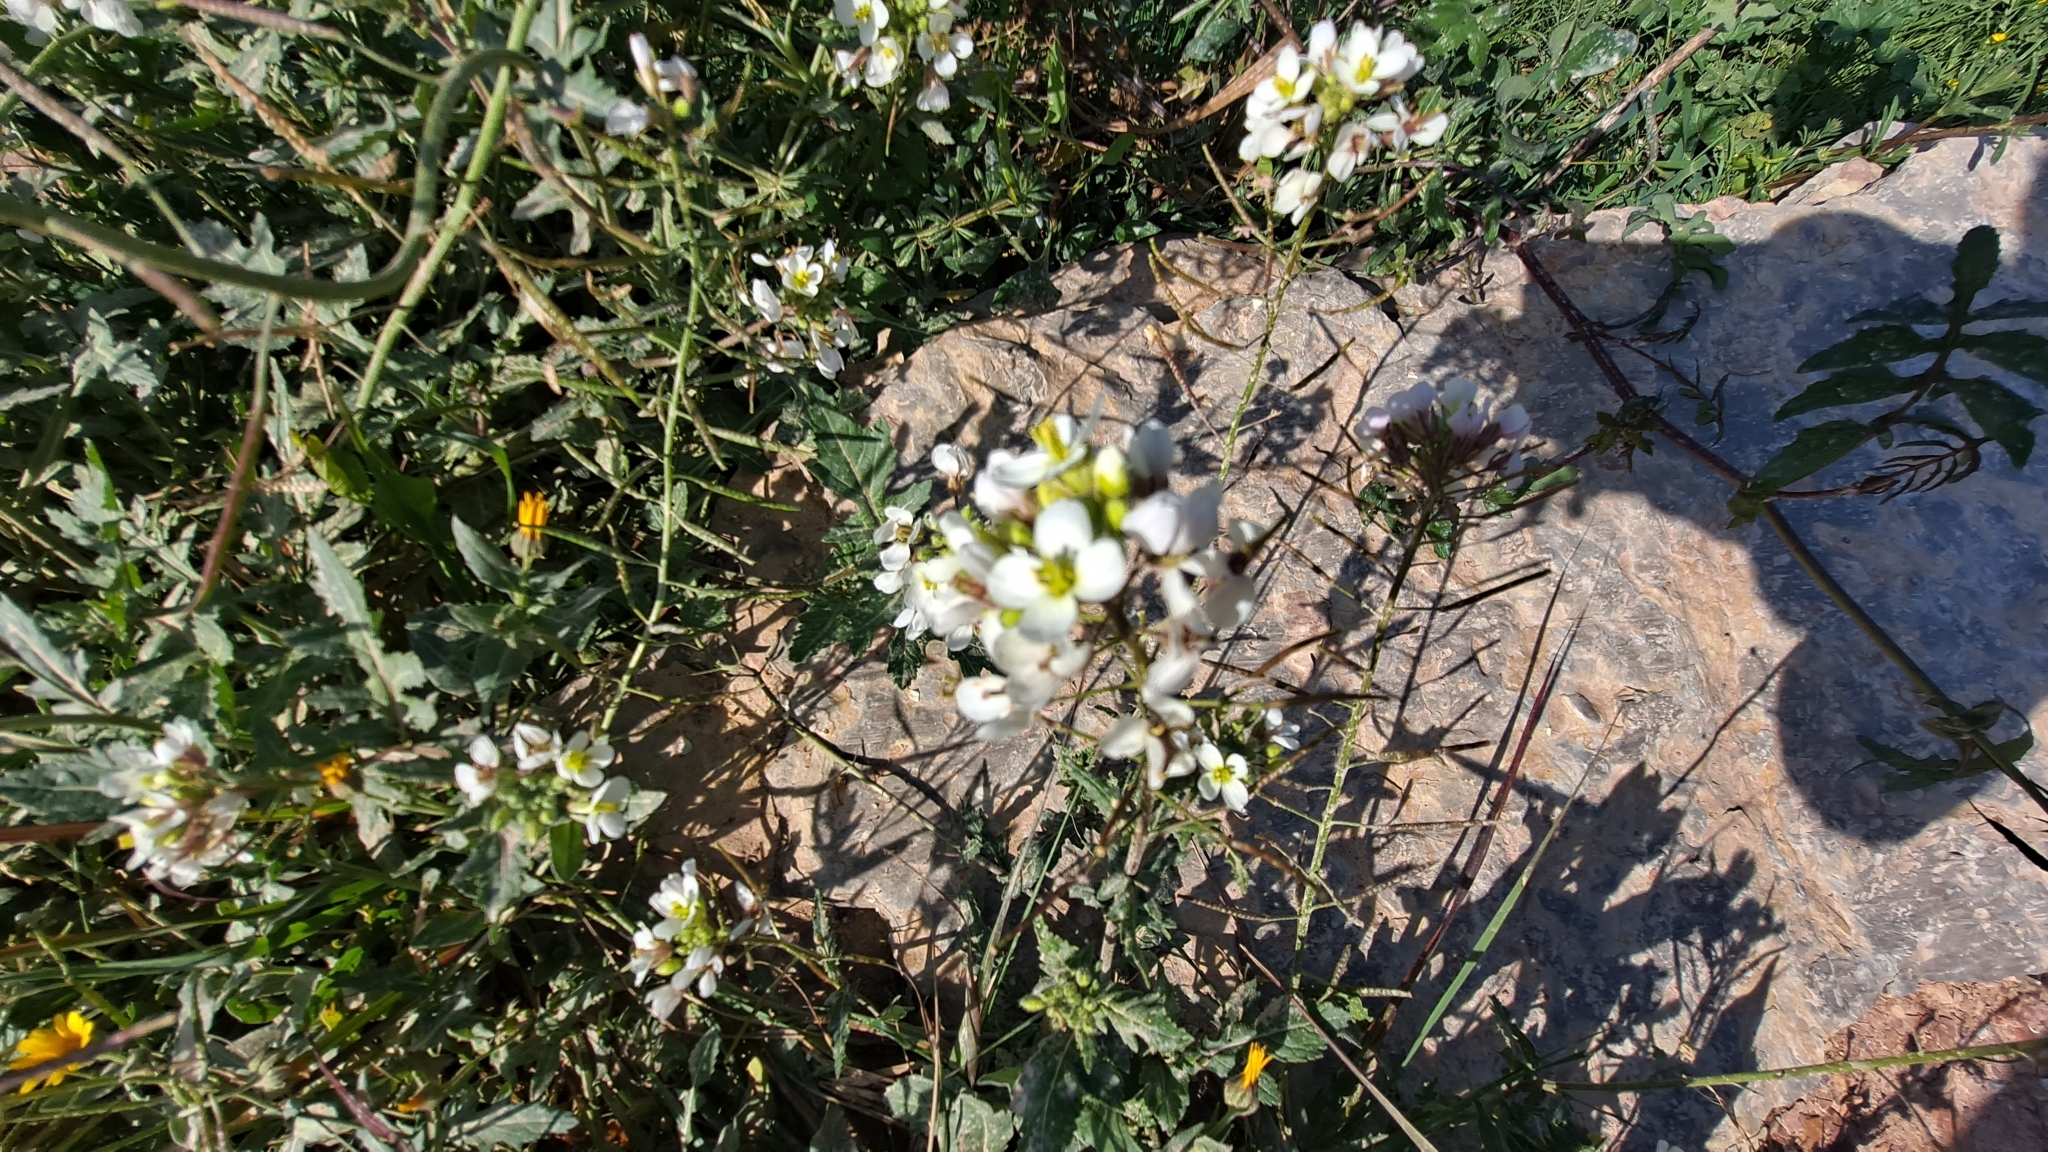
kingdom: Plantae
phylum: Tracheophyta
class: Magnoliopsida
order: Brassicales
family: Brassicaceae
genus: Diplotaxis
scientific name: Diplotaxis erucoides
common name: White rocket
